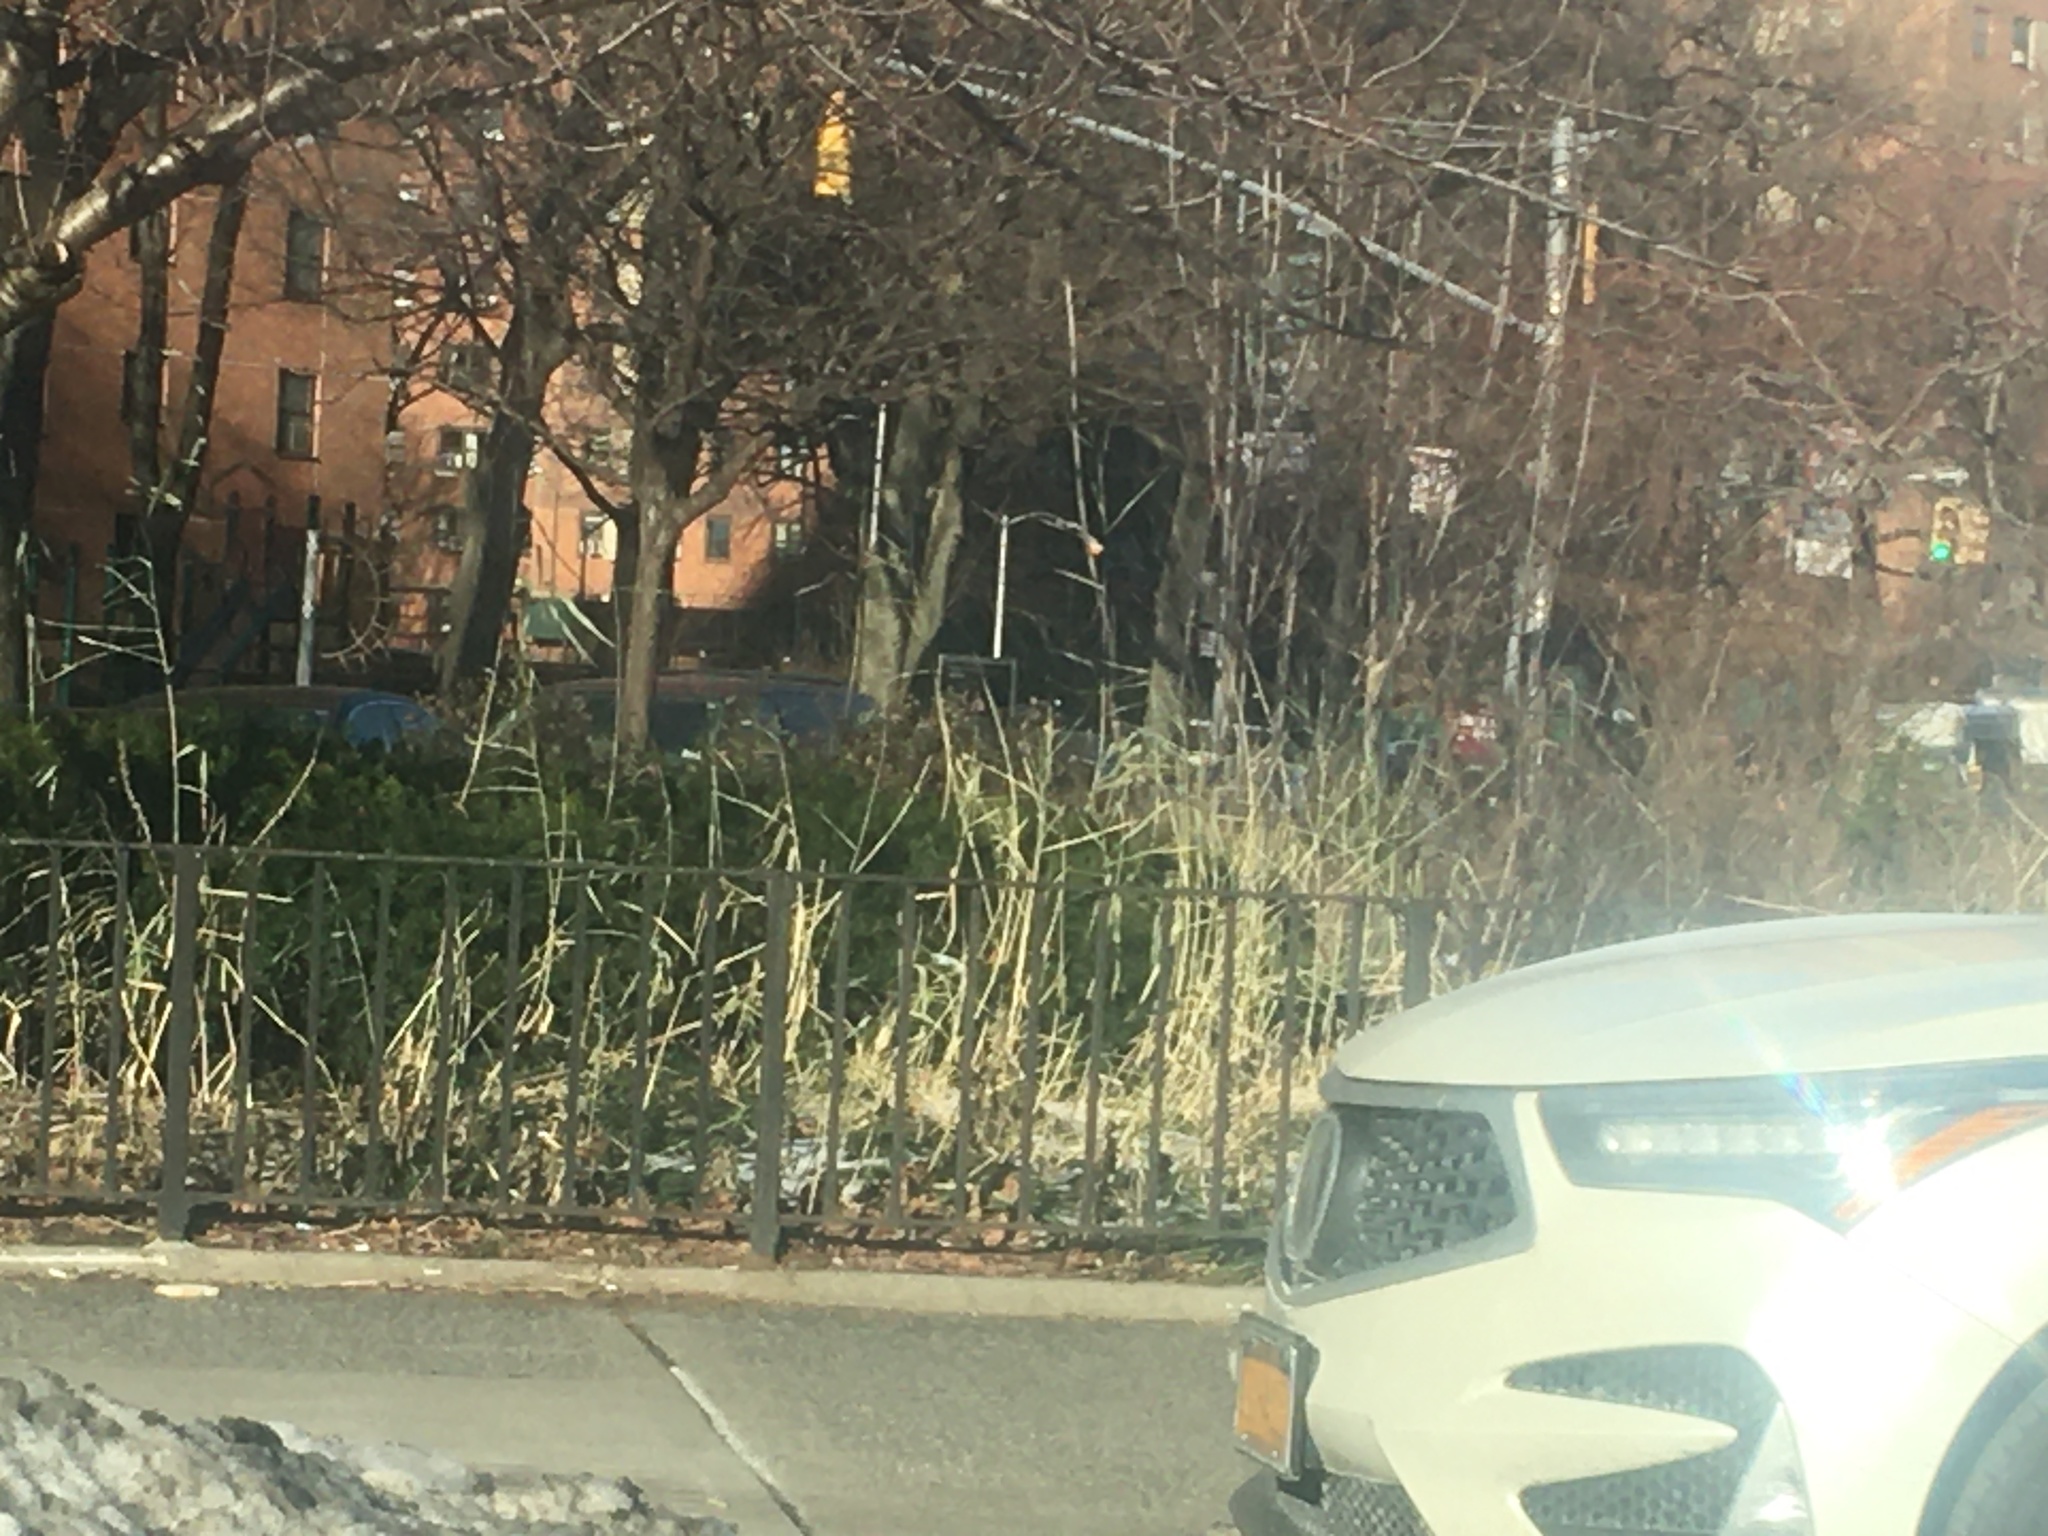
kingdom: Plantae
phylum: Tracheophyta
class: Liliopsida
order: Poales
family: Poaceae
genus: Phragmites
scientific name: Phragmites australis
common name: Common reed
